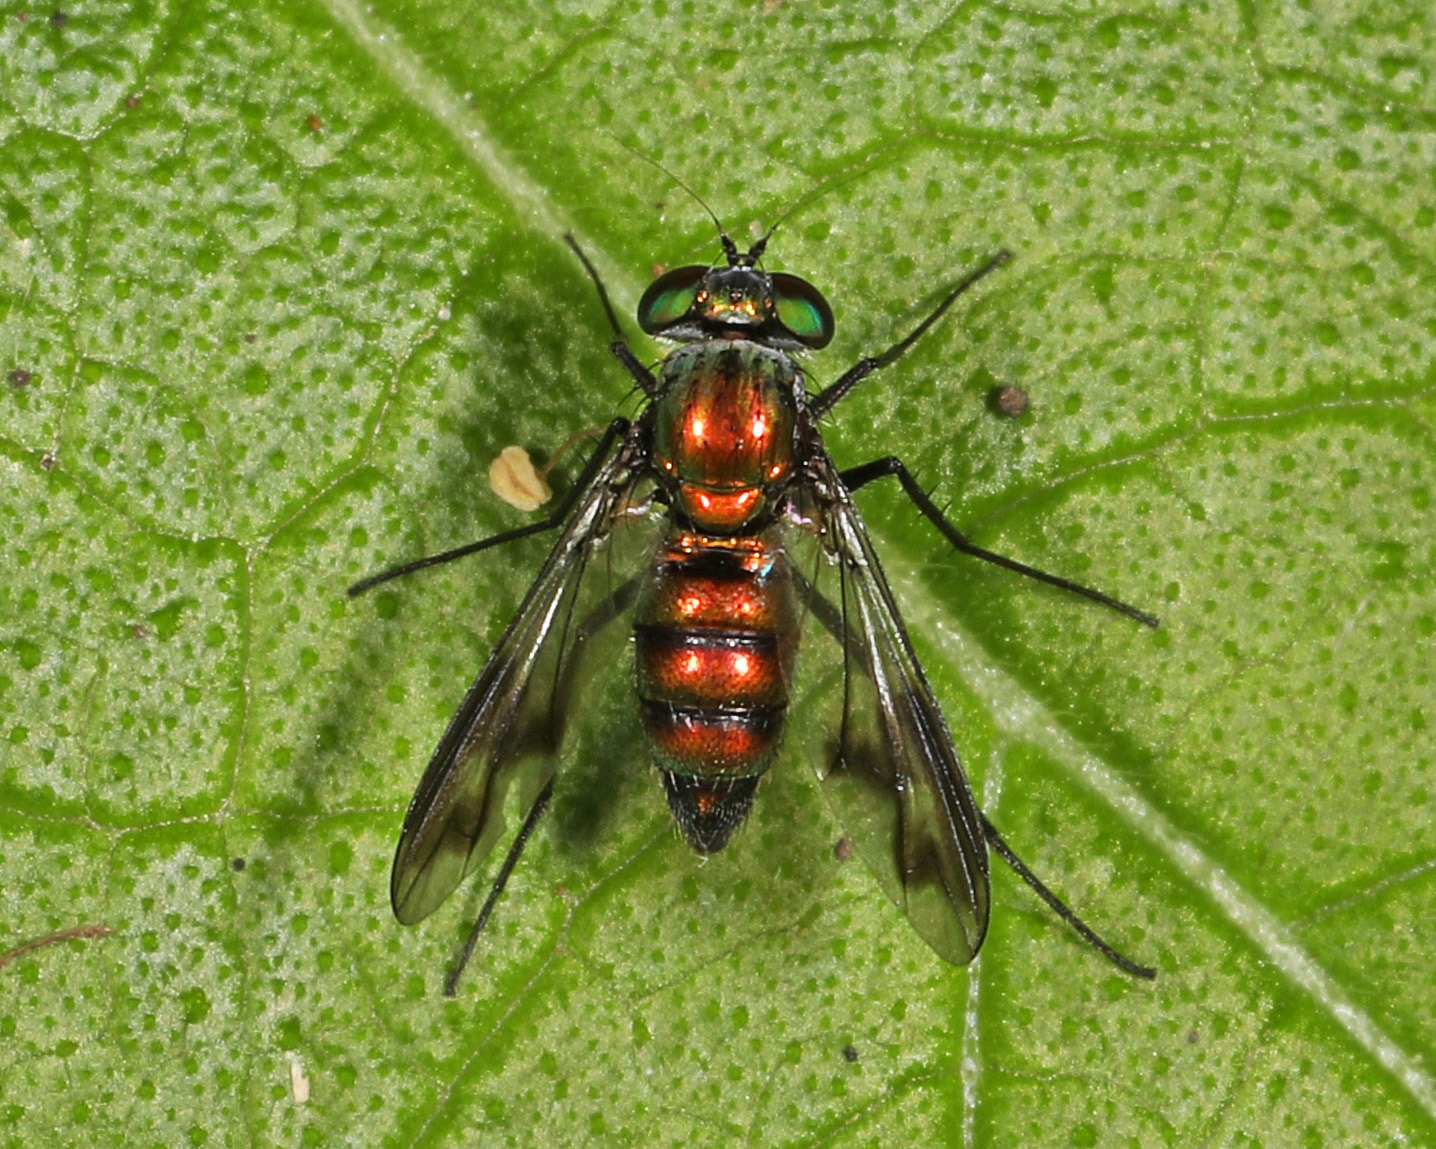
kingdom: Animalia
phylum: Arthropoda
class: Insecta
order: Diptera
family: Dolichopodidae
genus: Condylostylus
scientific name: Condylostylus patibulatus
